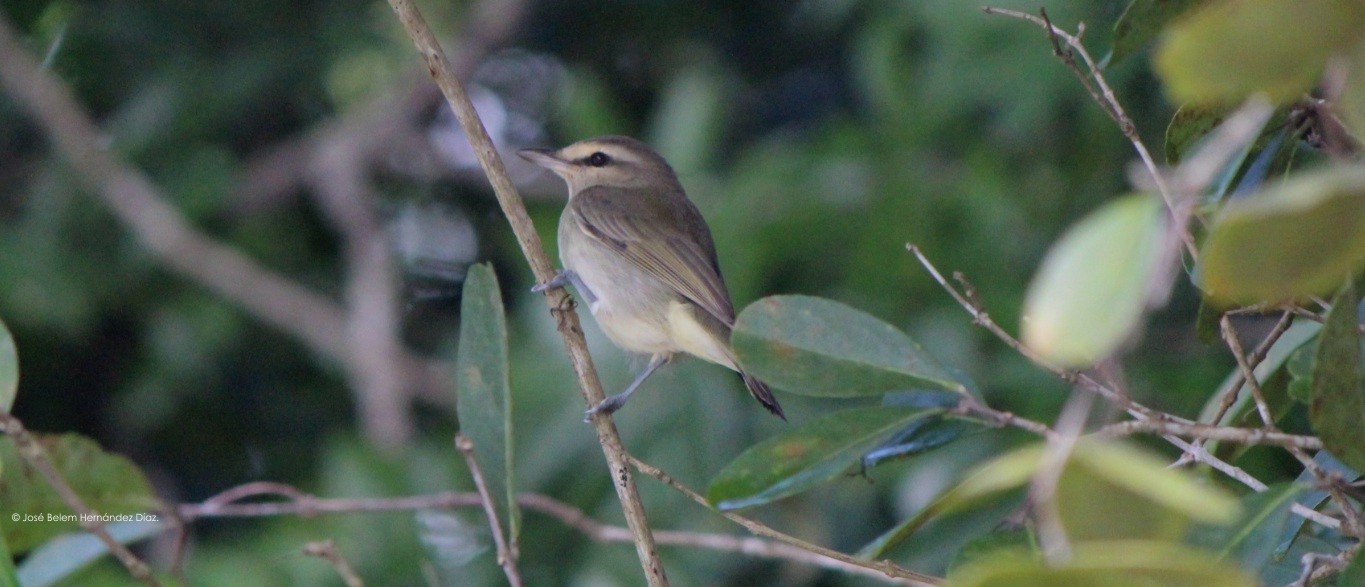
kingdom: Animalia
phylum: Chordata
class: Aves
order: Passeriformes
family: Vireonidae
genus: Vireo
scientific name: Vireo magister
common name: Yucatan vireo
